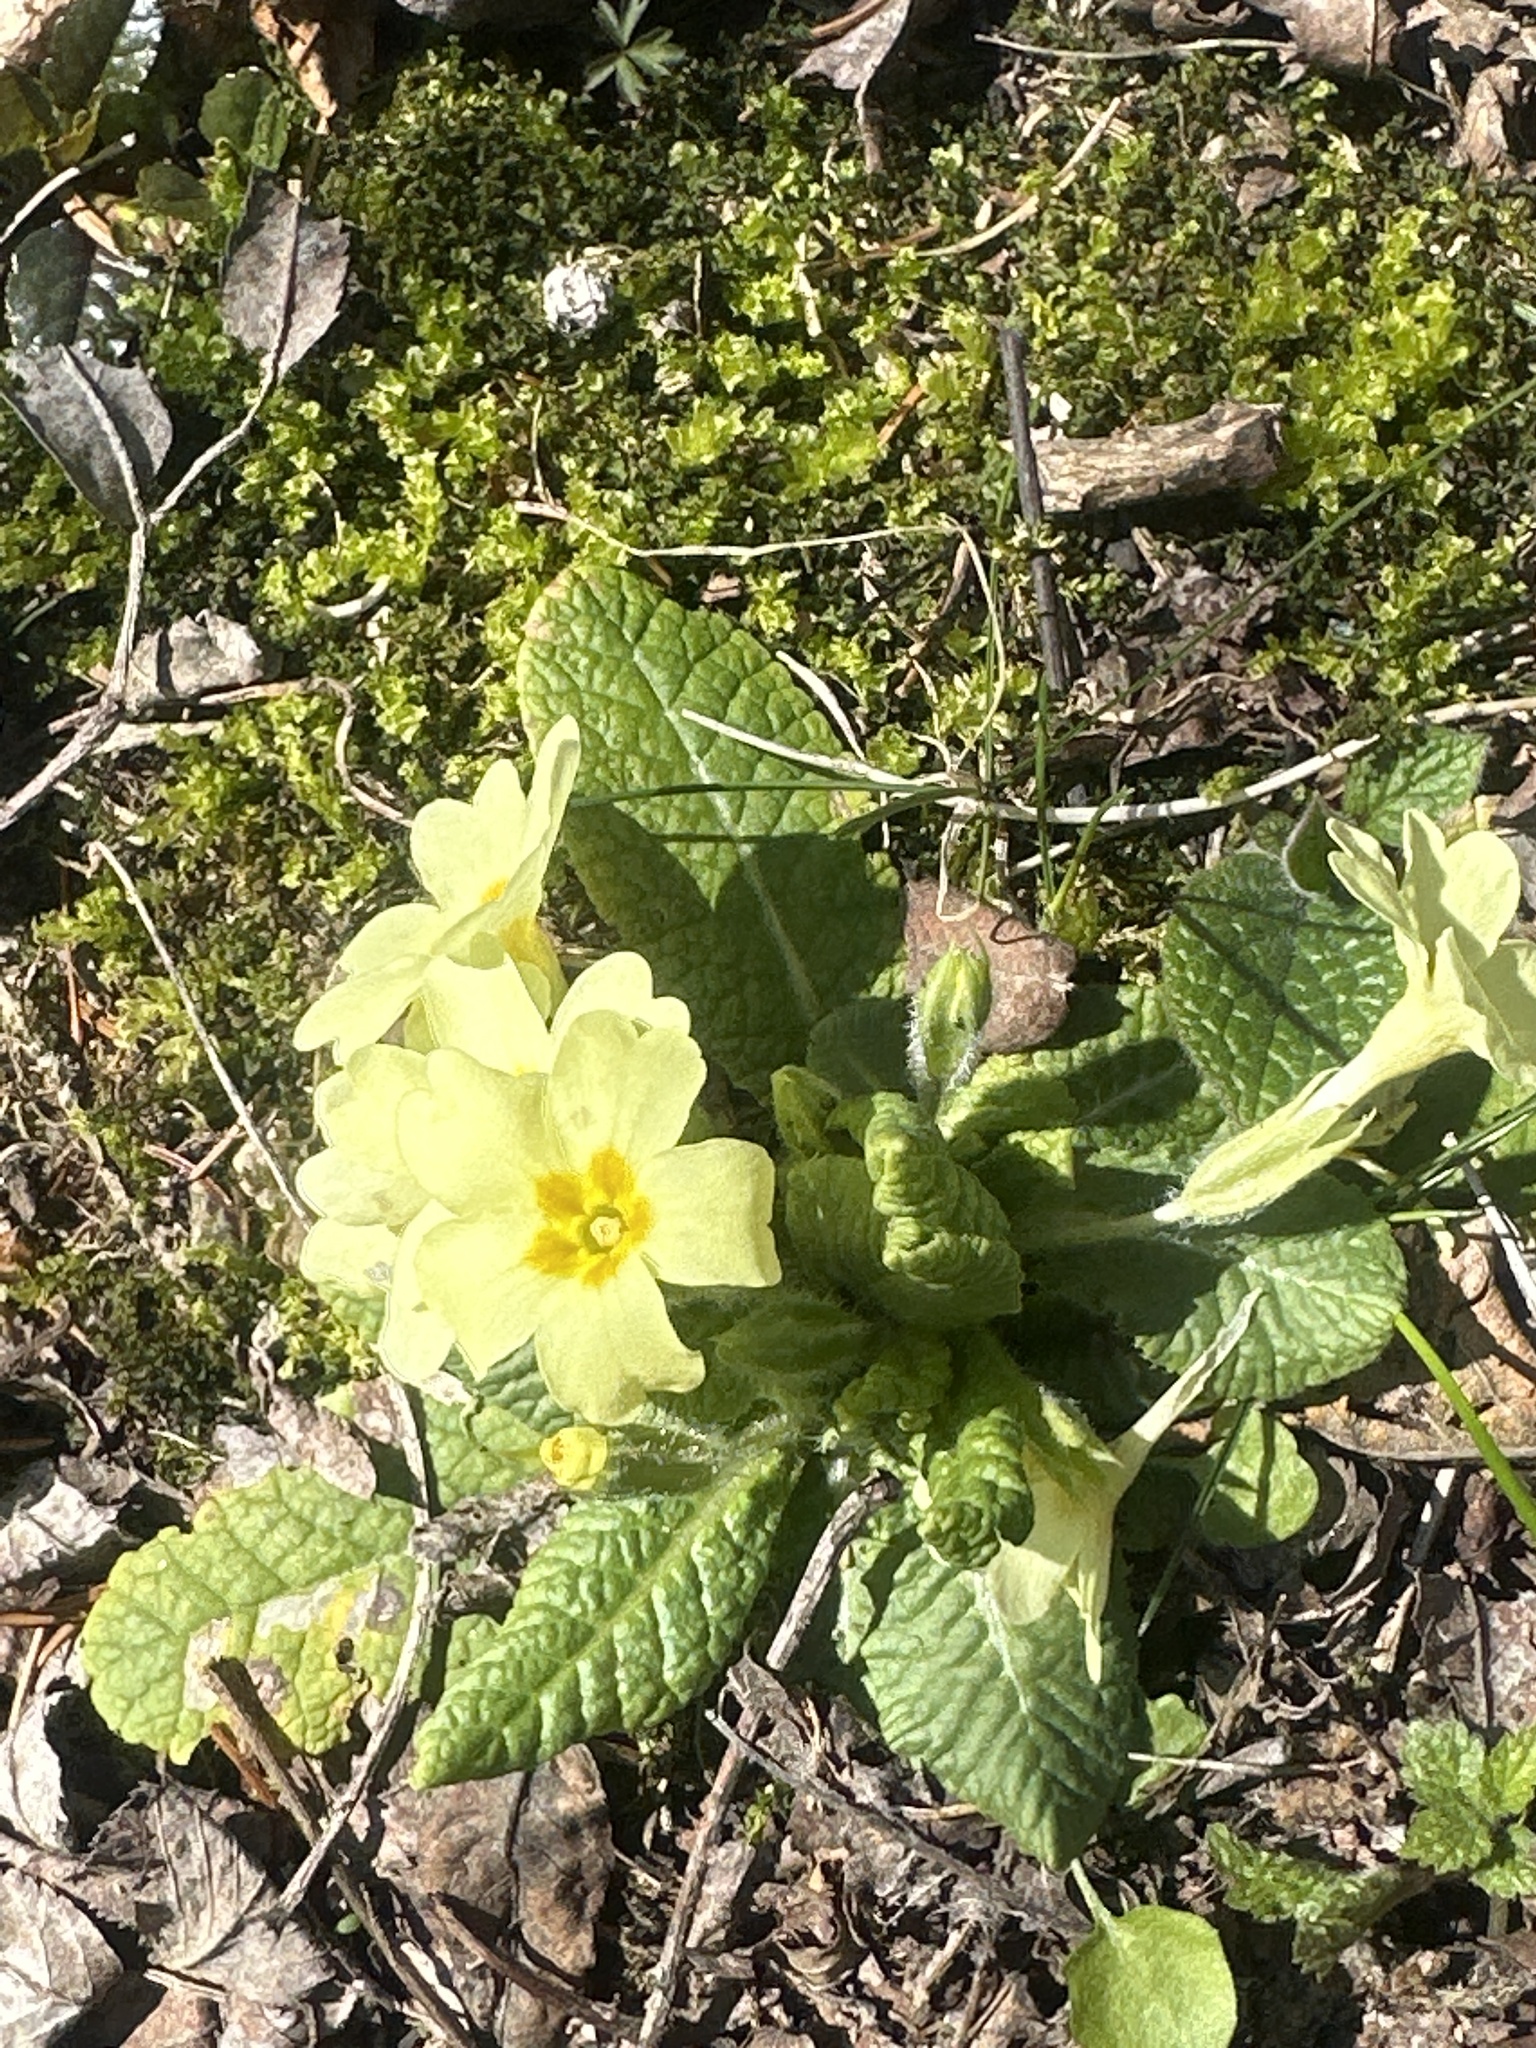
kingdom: Plantae
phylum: Tracheophyta
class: Magnoliopsida
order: Ericales
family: Primulaceae
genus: Primula
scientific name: Primula vulgaris
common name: Primrose
